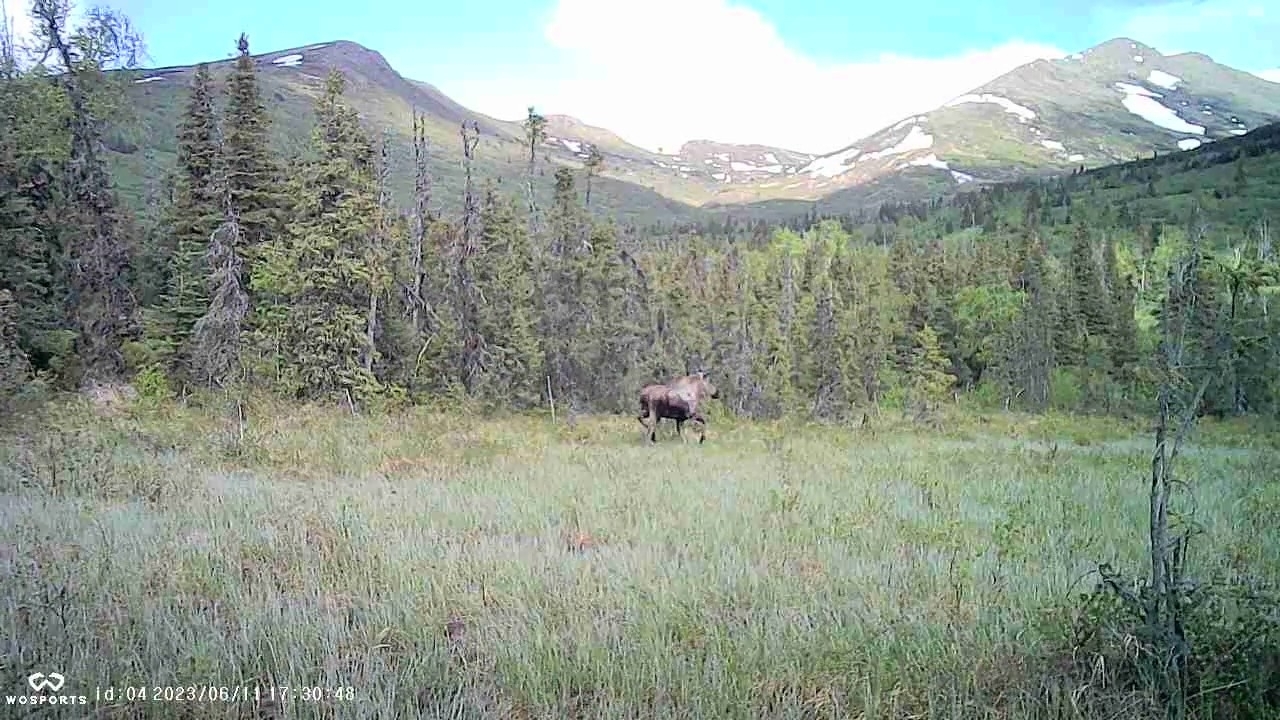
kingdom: Animalia
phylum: Chordata
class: Mammalia
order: Artiodactyla
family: Cervidae
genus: Alces
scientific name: Alces alces
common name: Moose
